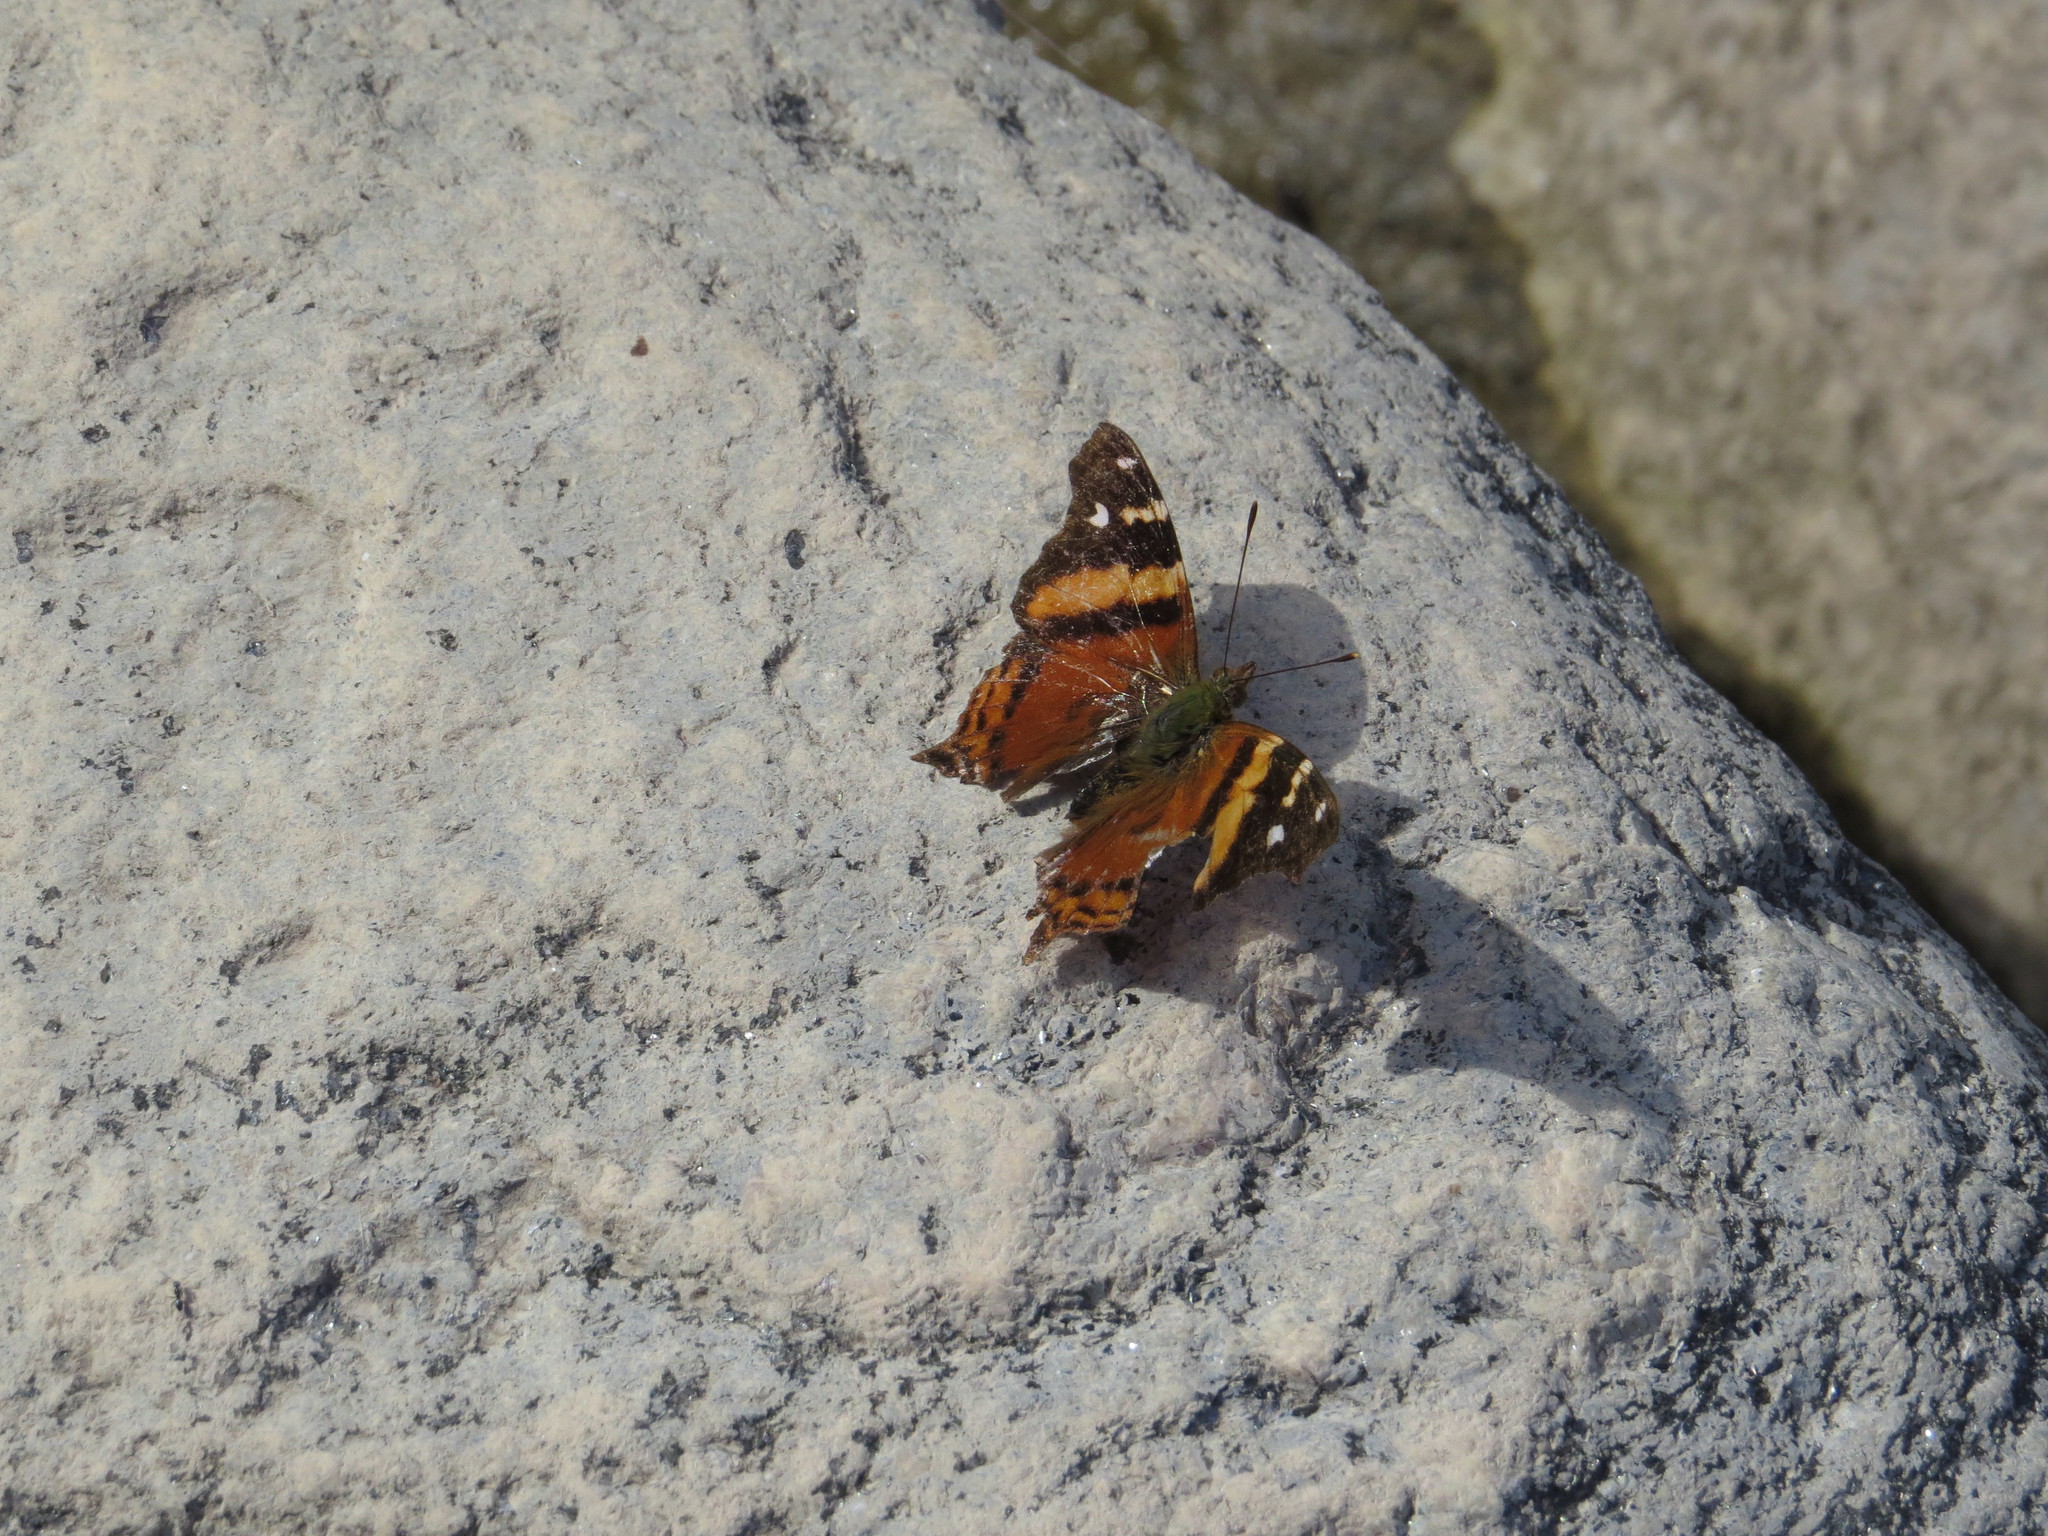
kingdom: Animalia
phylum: Arthropoda
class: Insecta
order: Lepidoptera
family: Nymphalidae
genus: Hypanartia
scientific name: Hypanartia bella
